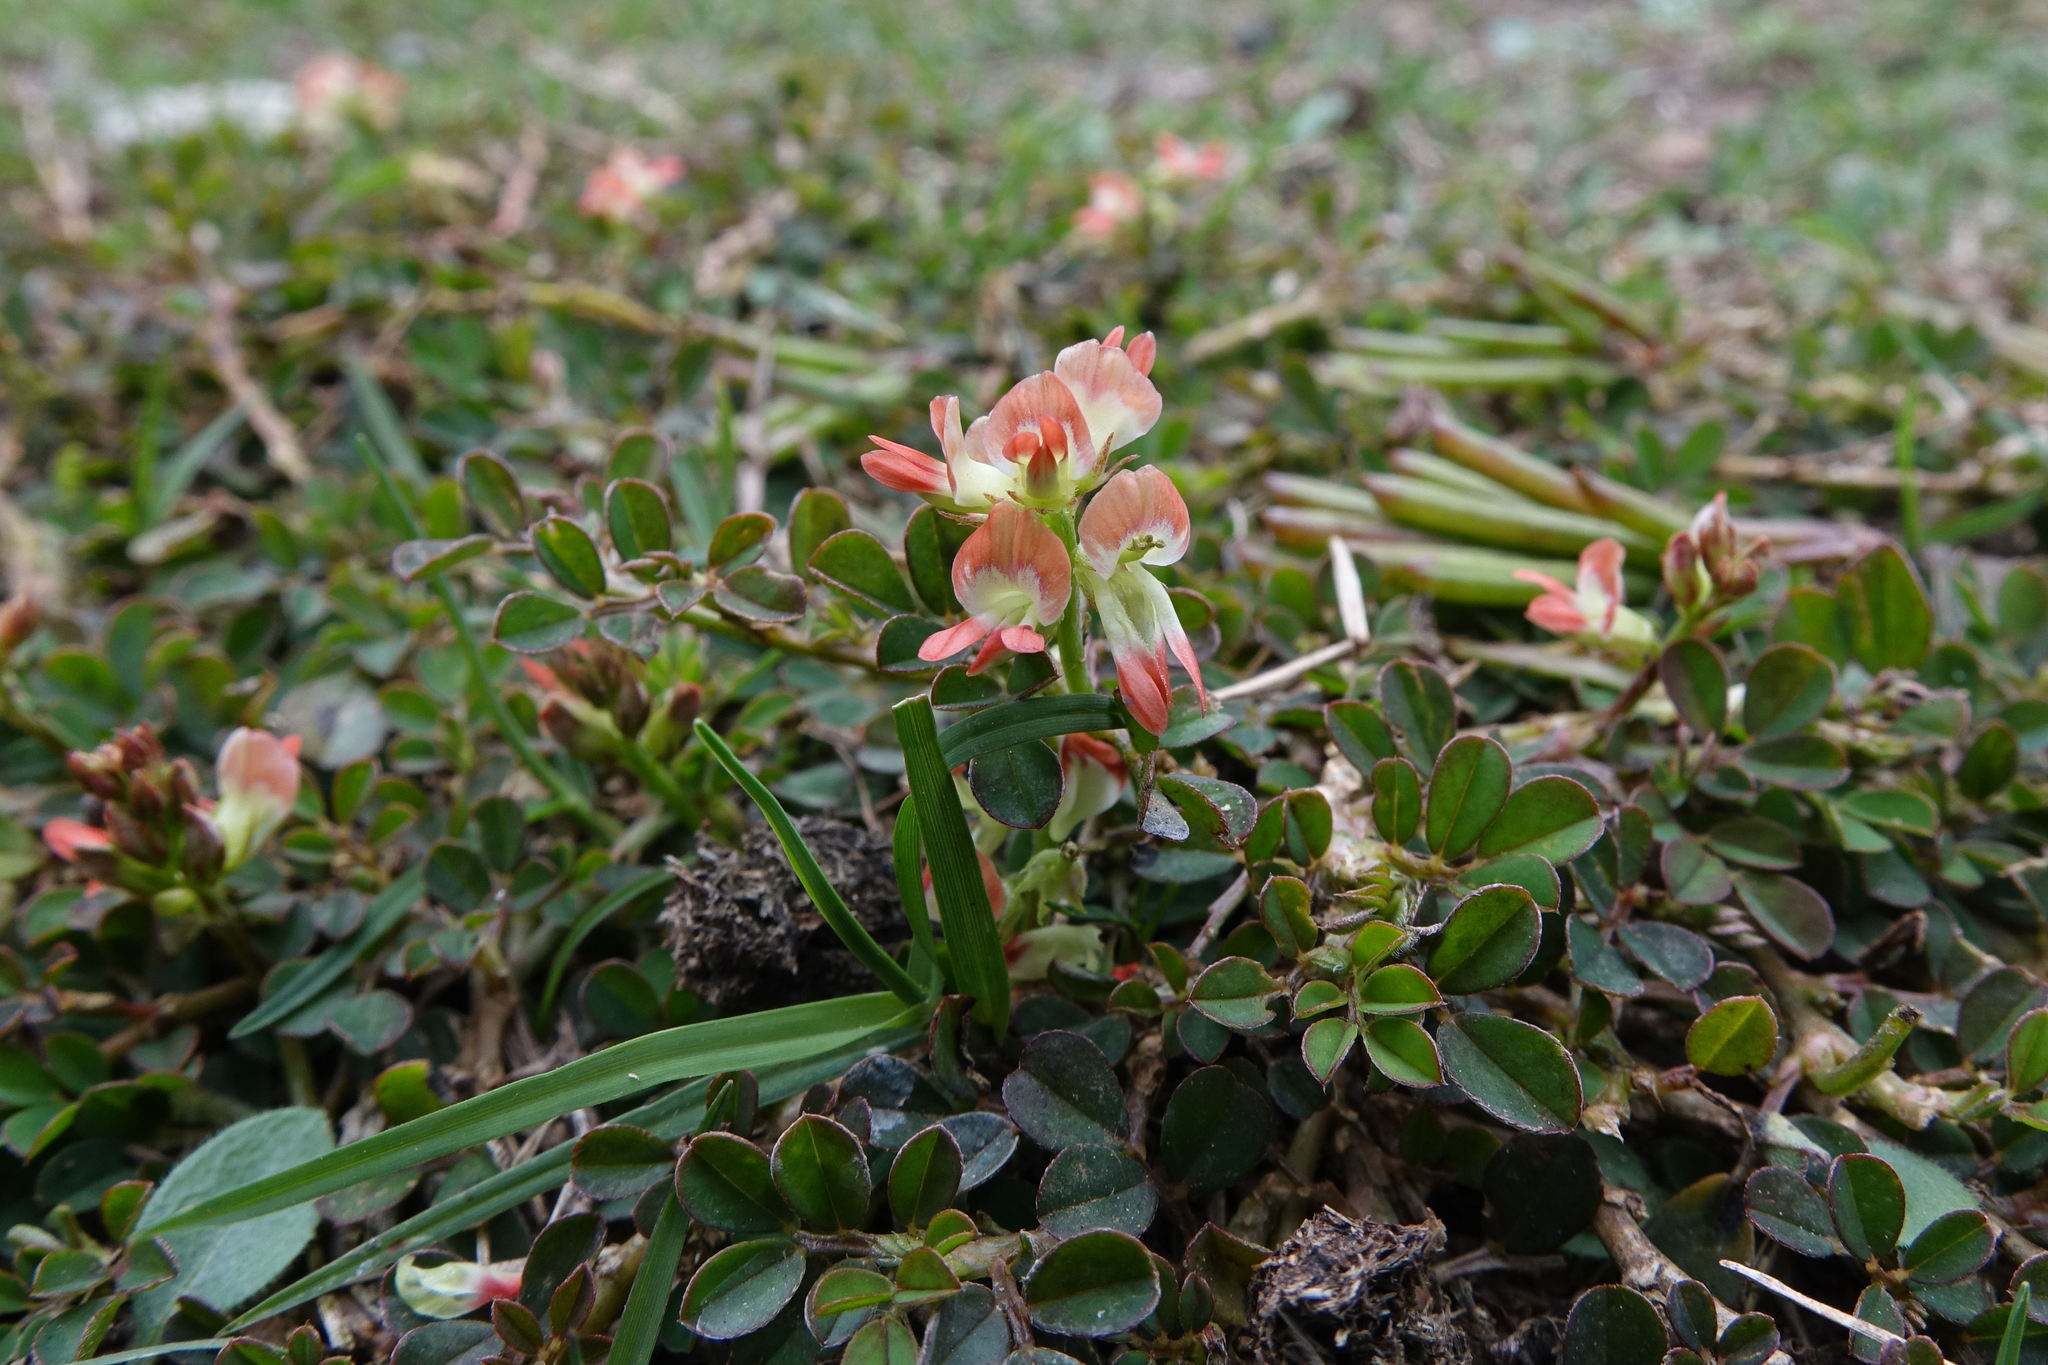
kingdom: Plantae
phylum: Tracheophyta
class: Magnoliopsida
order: Fabales
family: Fabaceae
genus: Indigofera
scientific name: Indigofera spicata
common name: Creeping indigo
